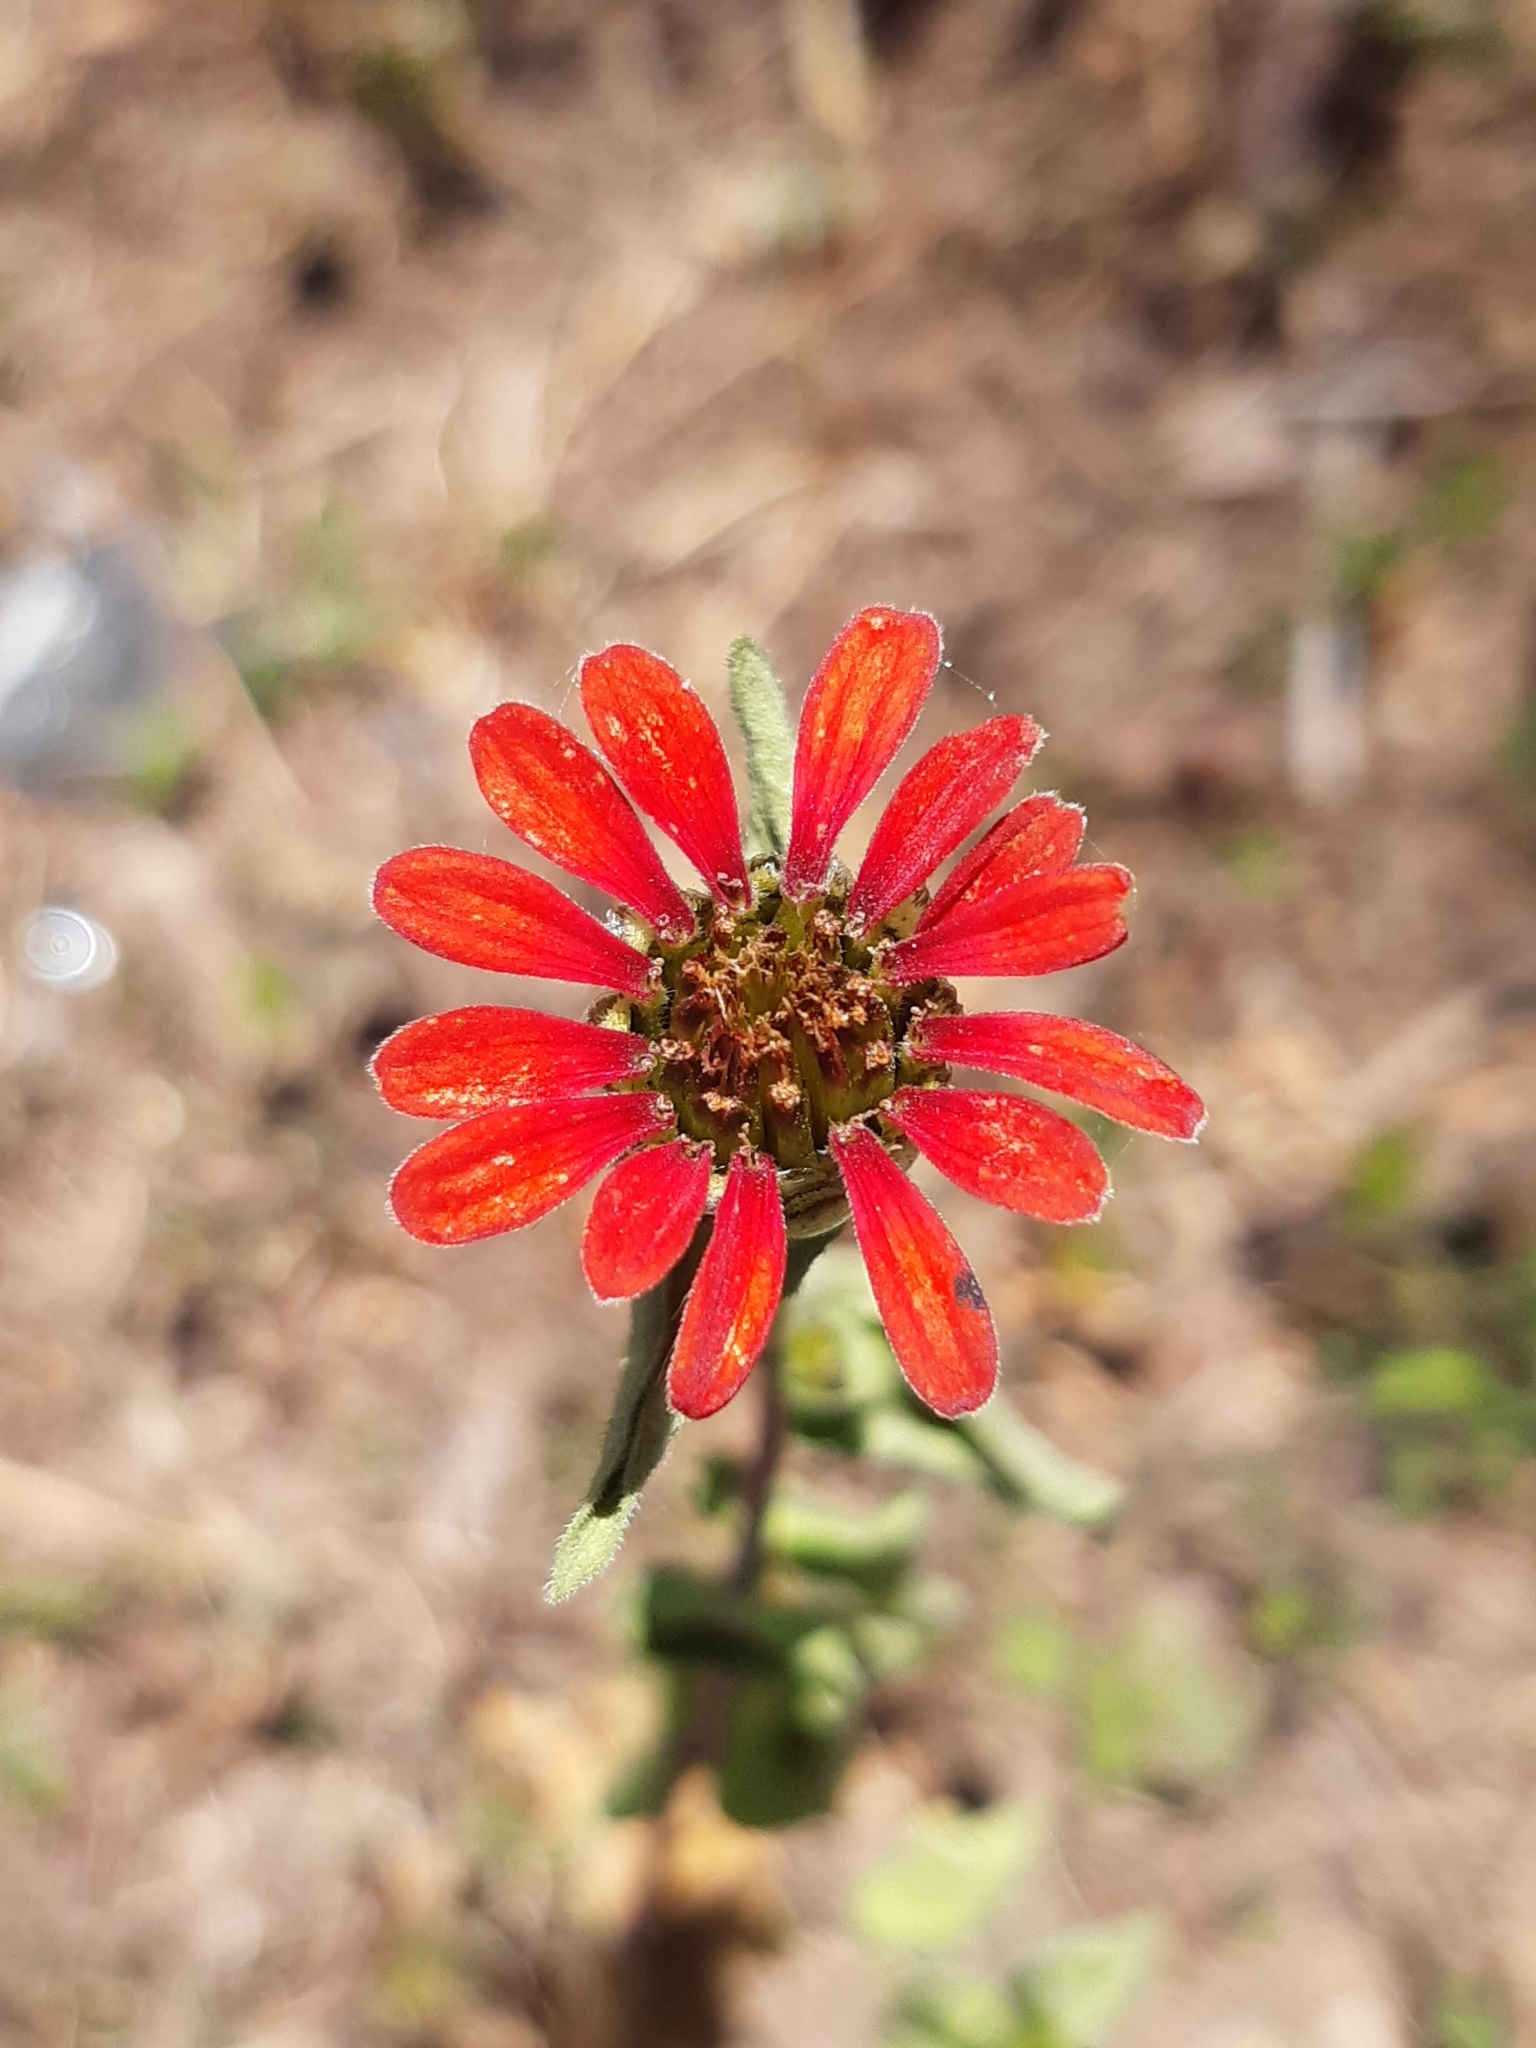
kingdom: Plantae
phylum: Tracheophyta
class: Magnoliopsida
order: Asterales
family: Asteraceae
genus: Zinnia
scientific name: Zinnia peruviana
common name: Peruvian zinnia
